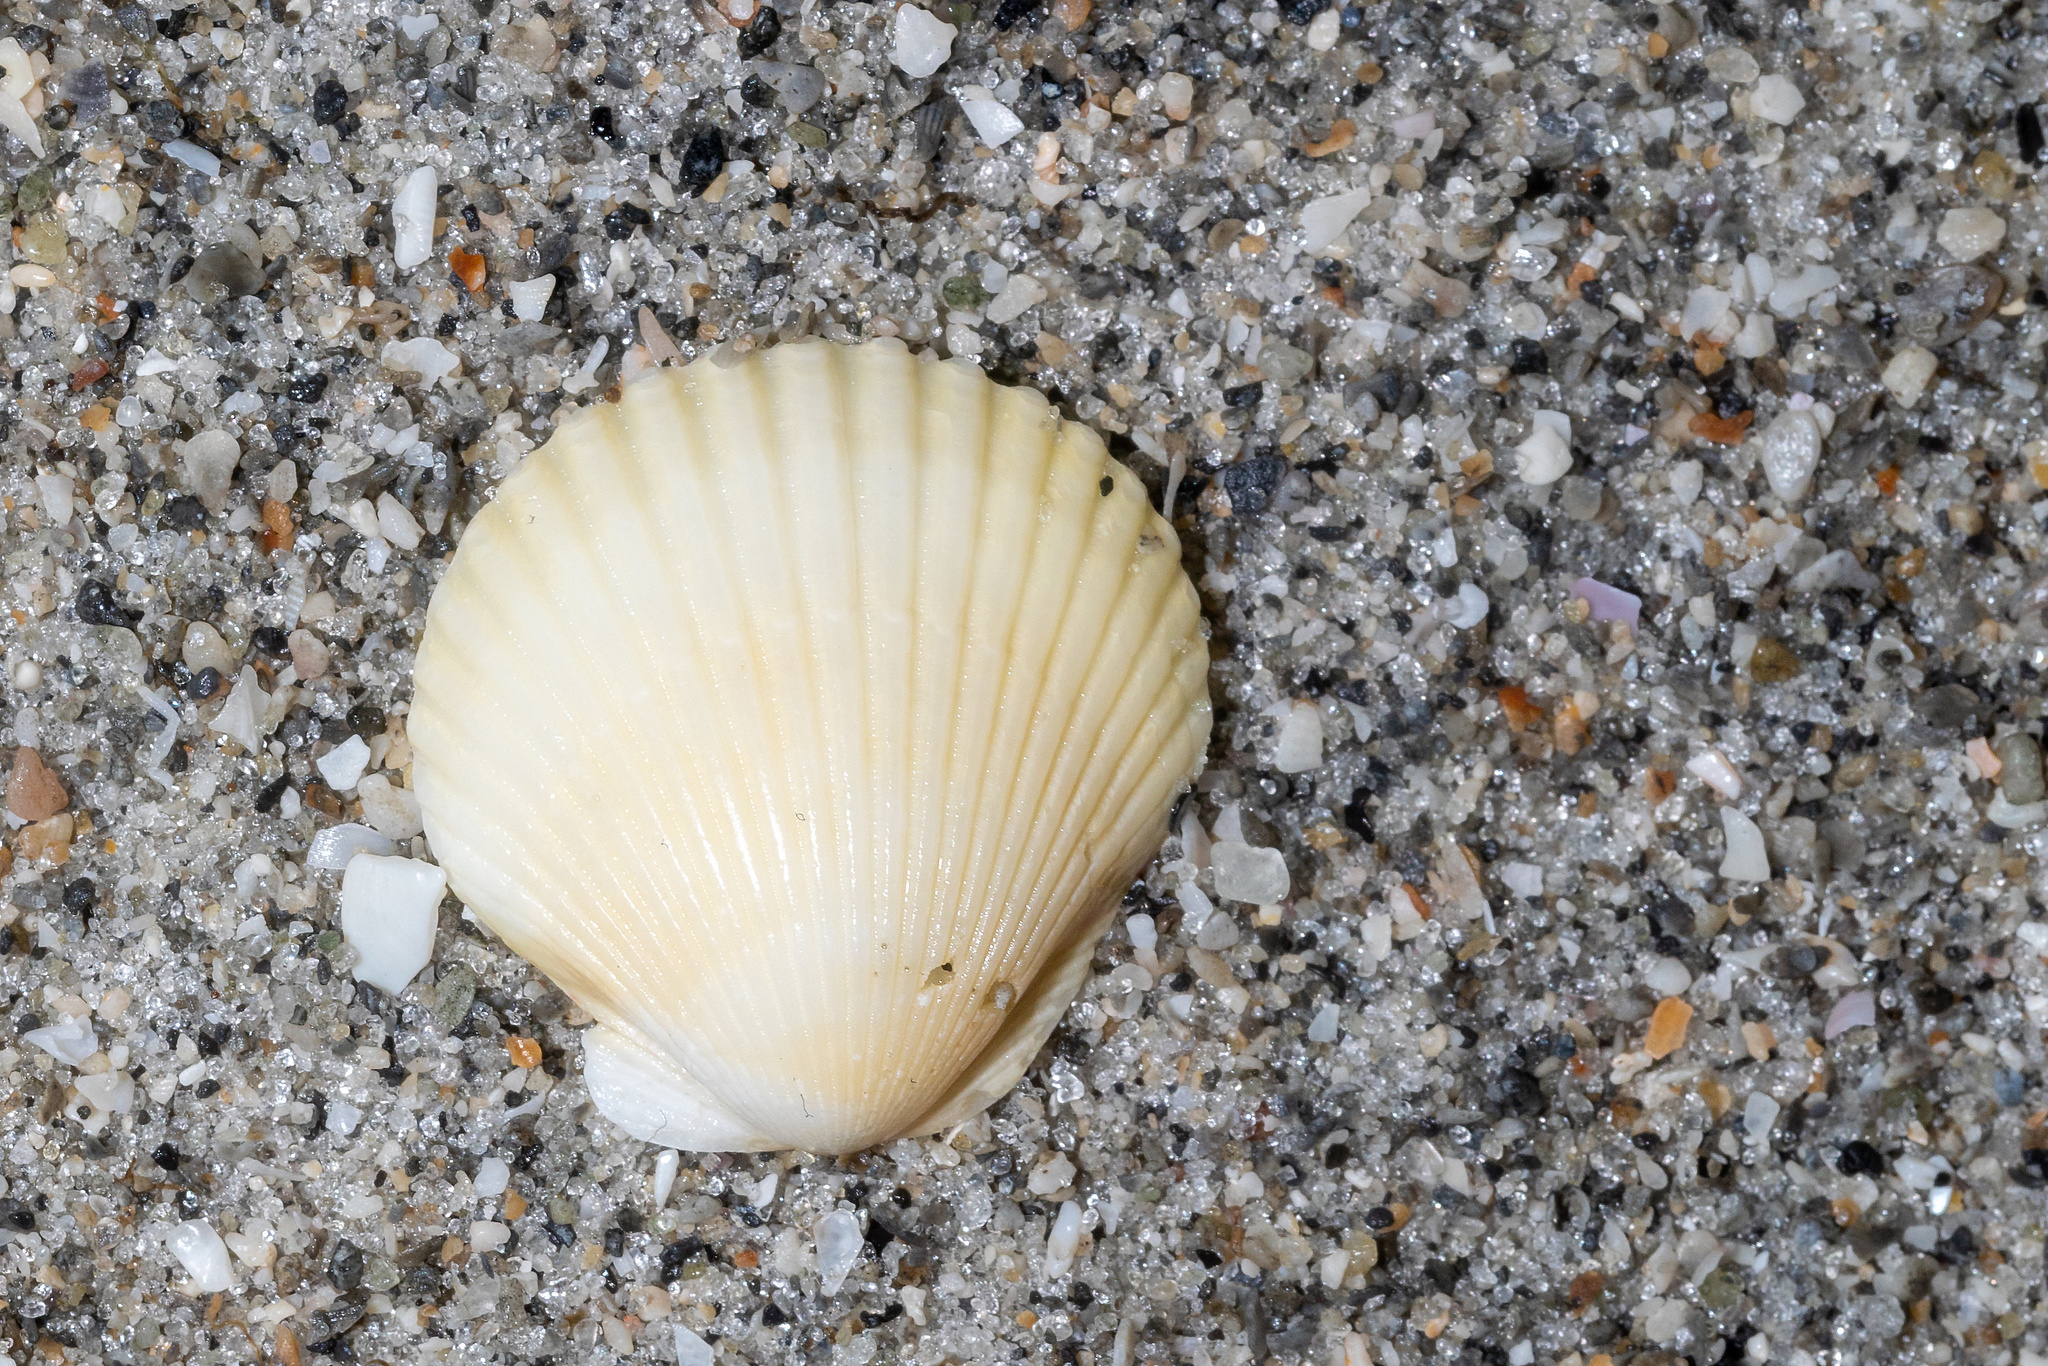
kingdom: Animalia
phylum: Mollusca
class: Bivalvia
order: Pectinida
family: Pectinidae
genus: Argopecten
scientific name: Argopecten gibbus
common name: Atlantic calico scallop
